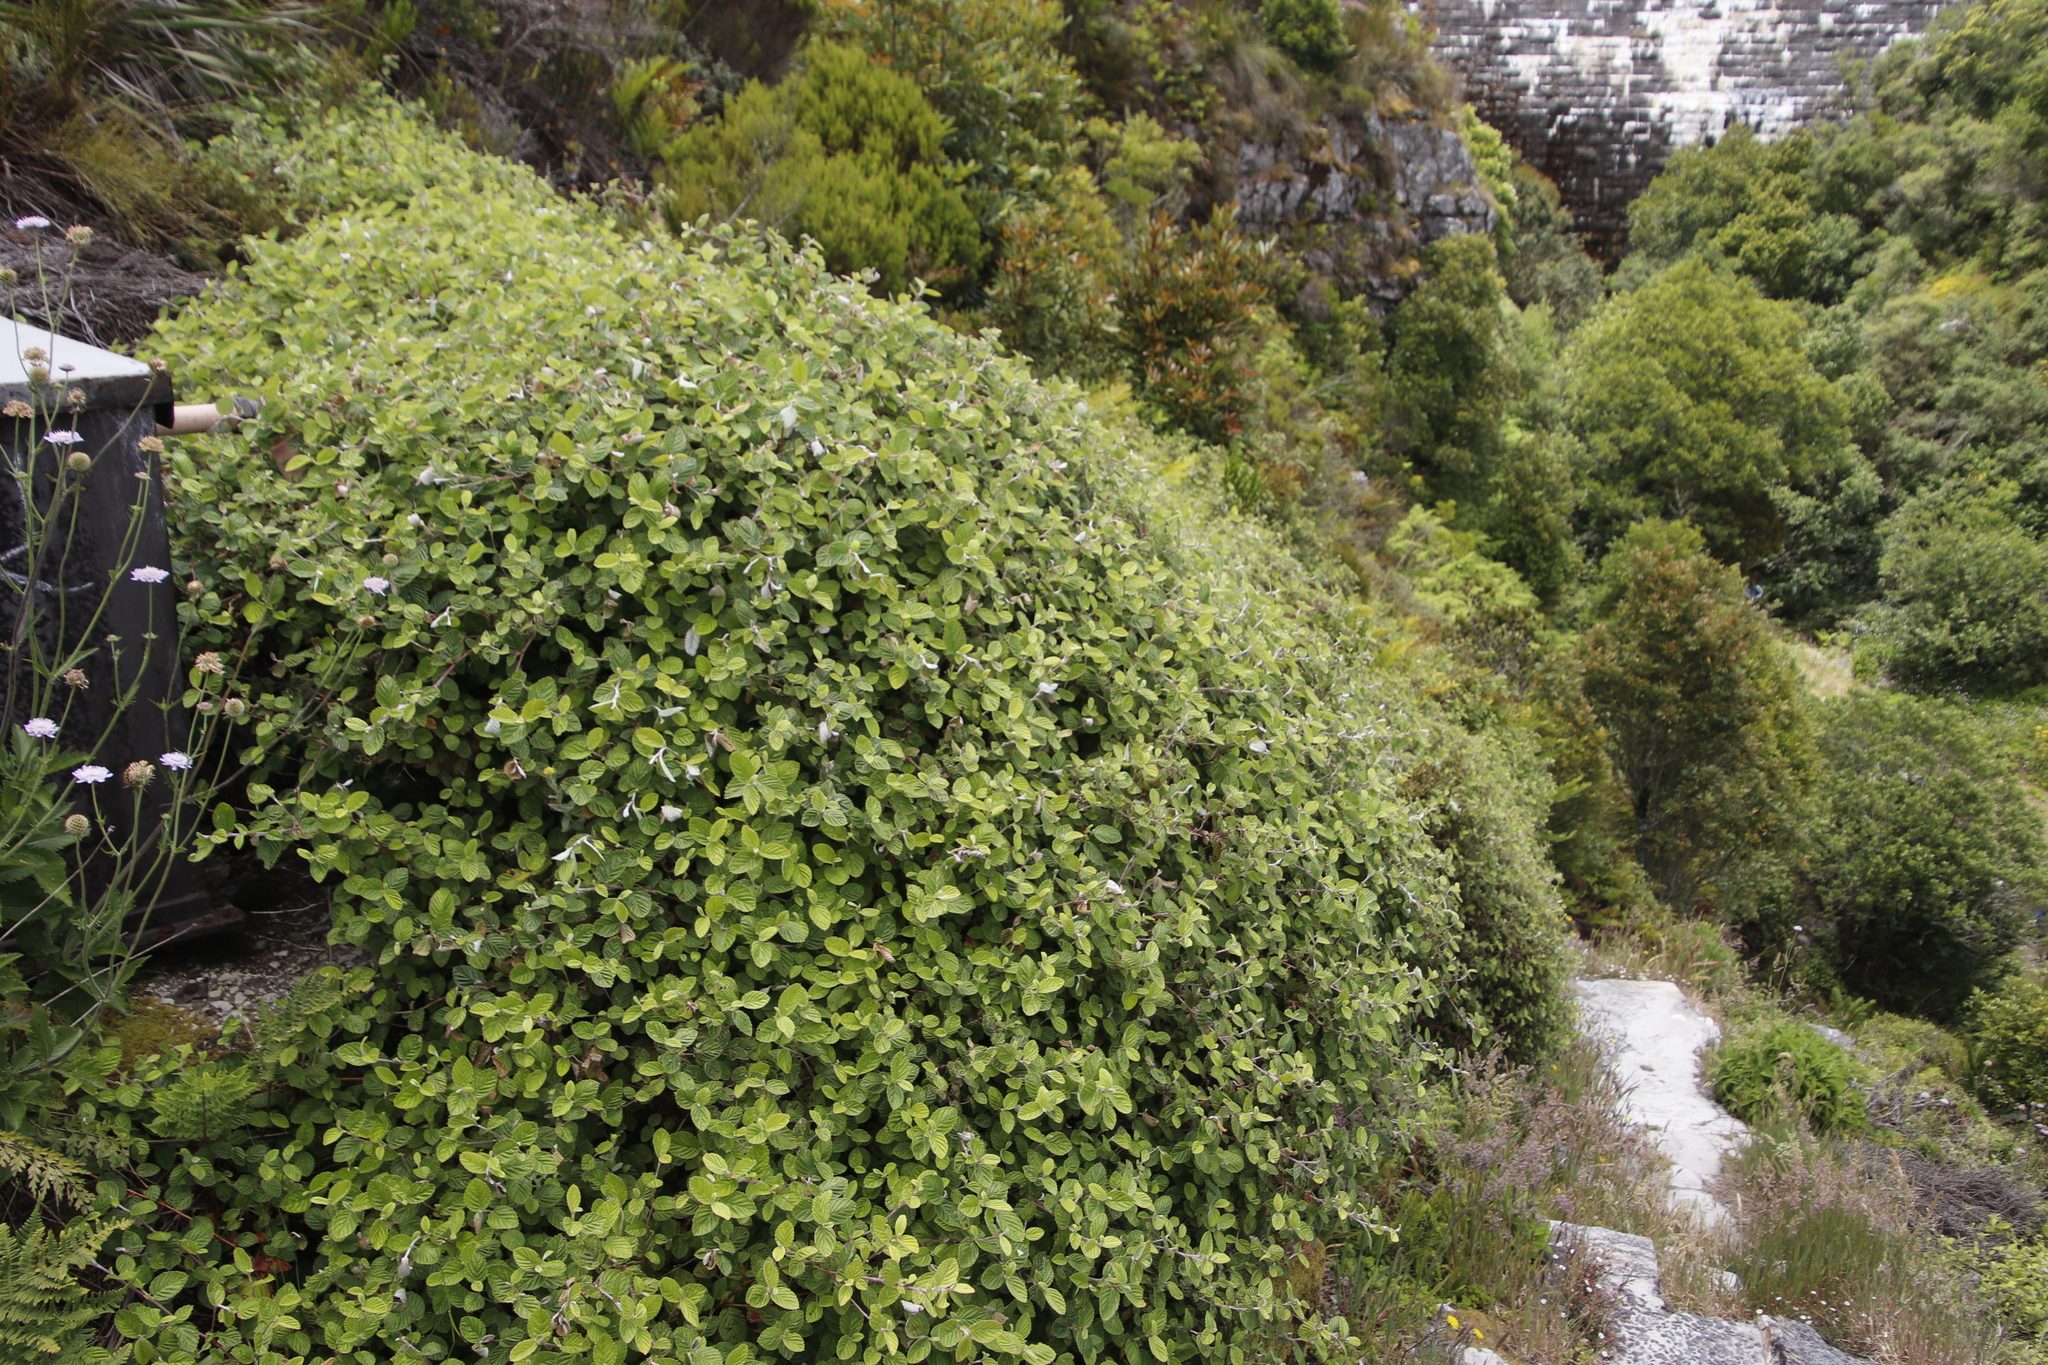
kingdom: Plantae
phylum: Tracheophyta
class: Magnoliopsida
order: Rosales
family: Rosaceae
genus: Cliffortia
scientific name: Cliffortia odorata
